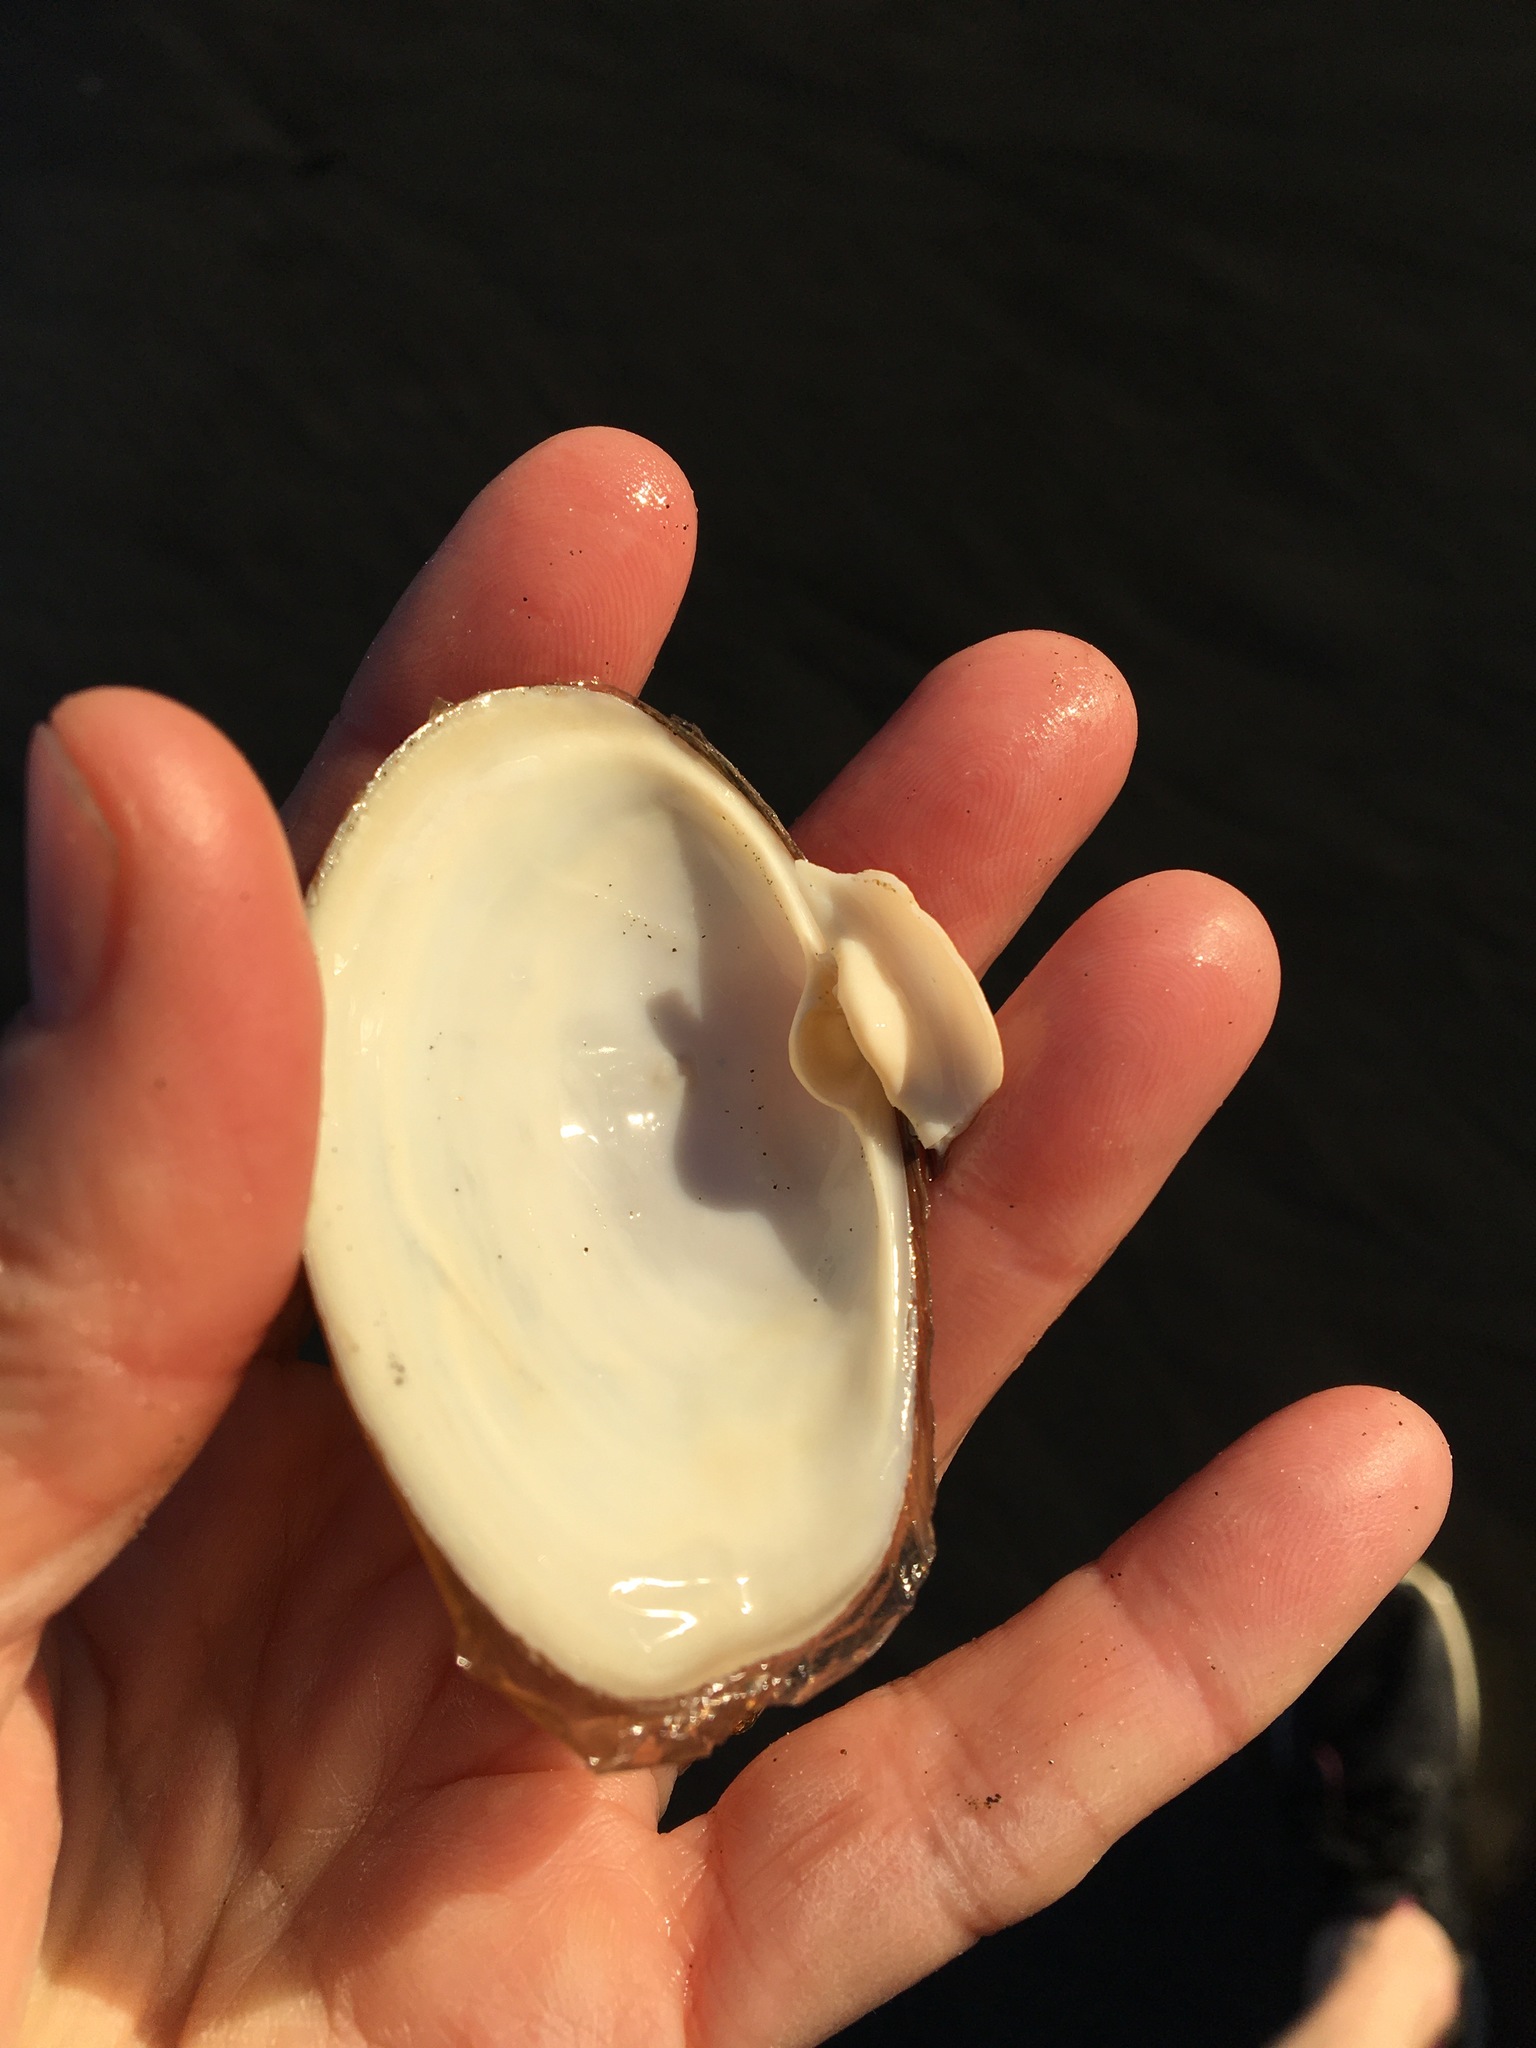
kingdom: Animalia
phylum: Mollusca
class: Bivalvia
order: Venerida
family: Mactridae
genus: Tresus
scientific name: Tresus nuttallii
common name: Pacific gaper clam
